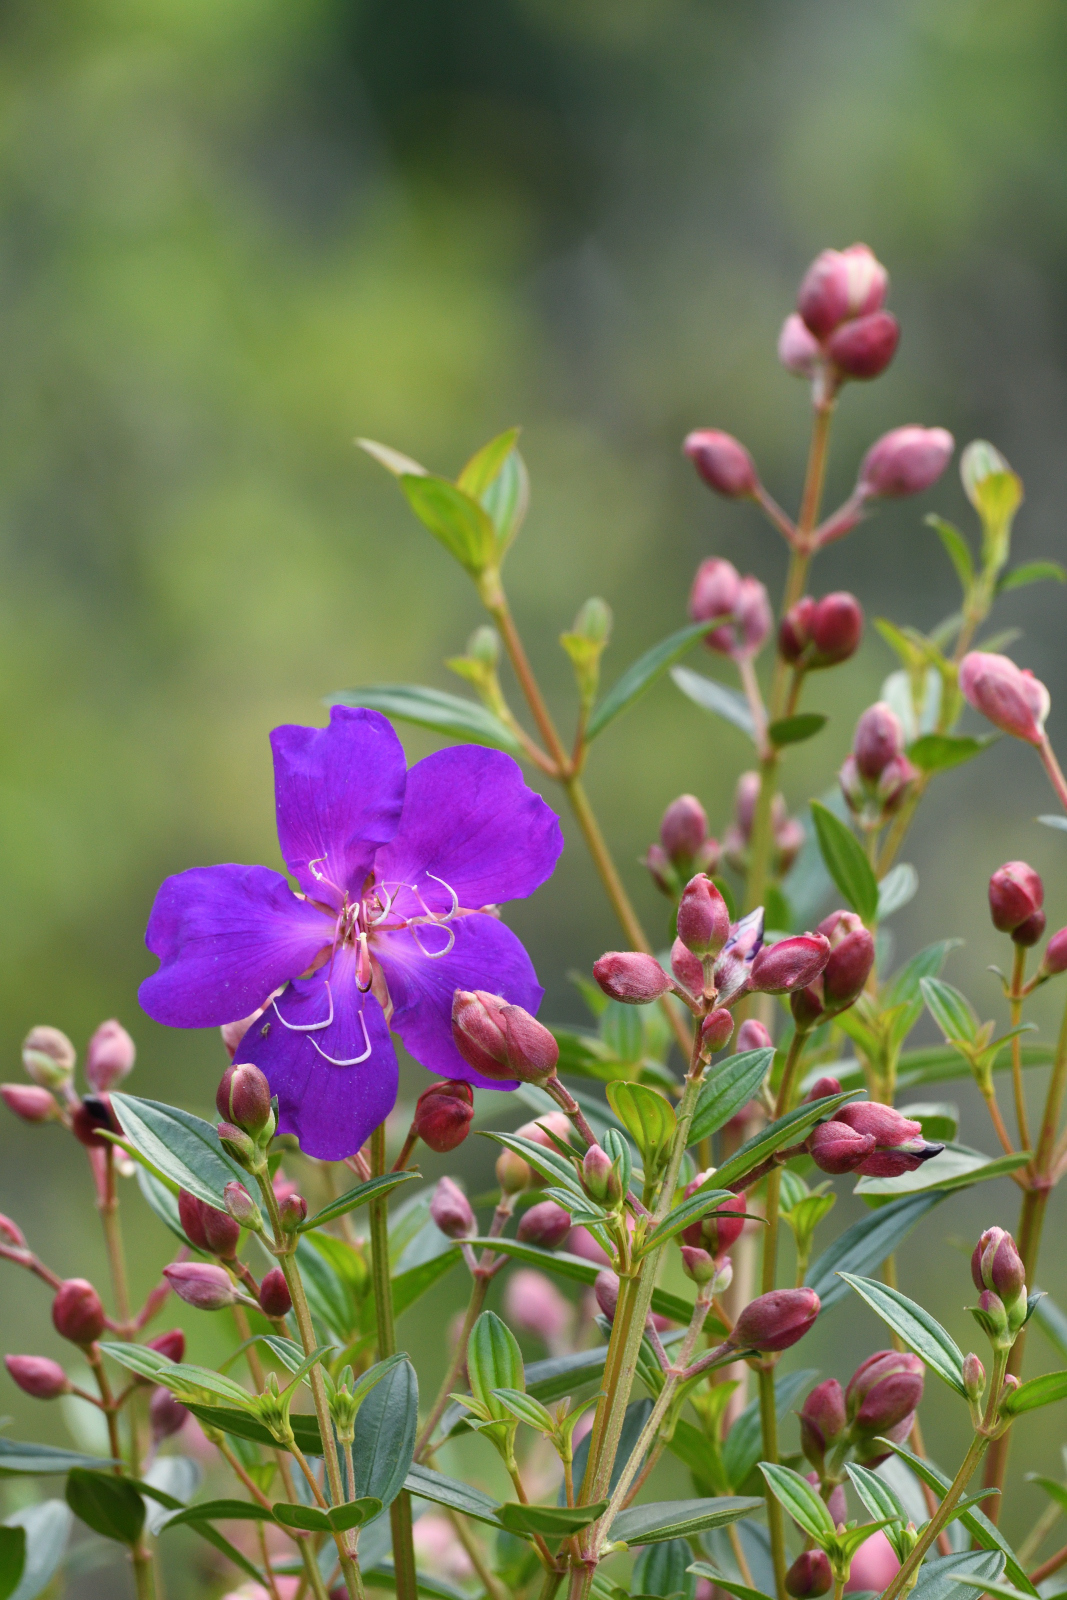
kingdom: Plantae
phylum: Tracheophyta
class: Magnoliopsida
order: Myrtales
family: Melastomataceae
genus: Pleroma
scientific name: Pleroma semidecandrum
